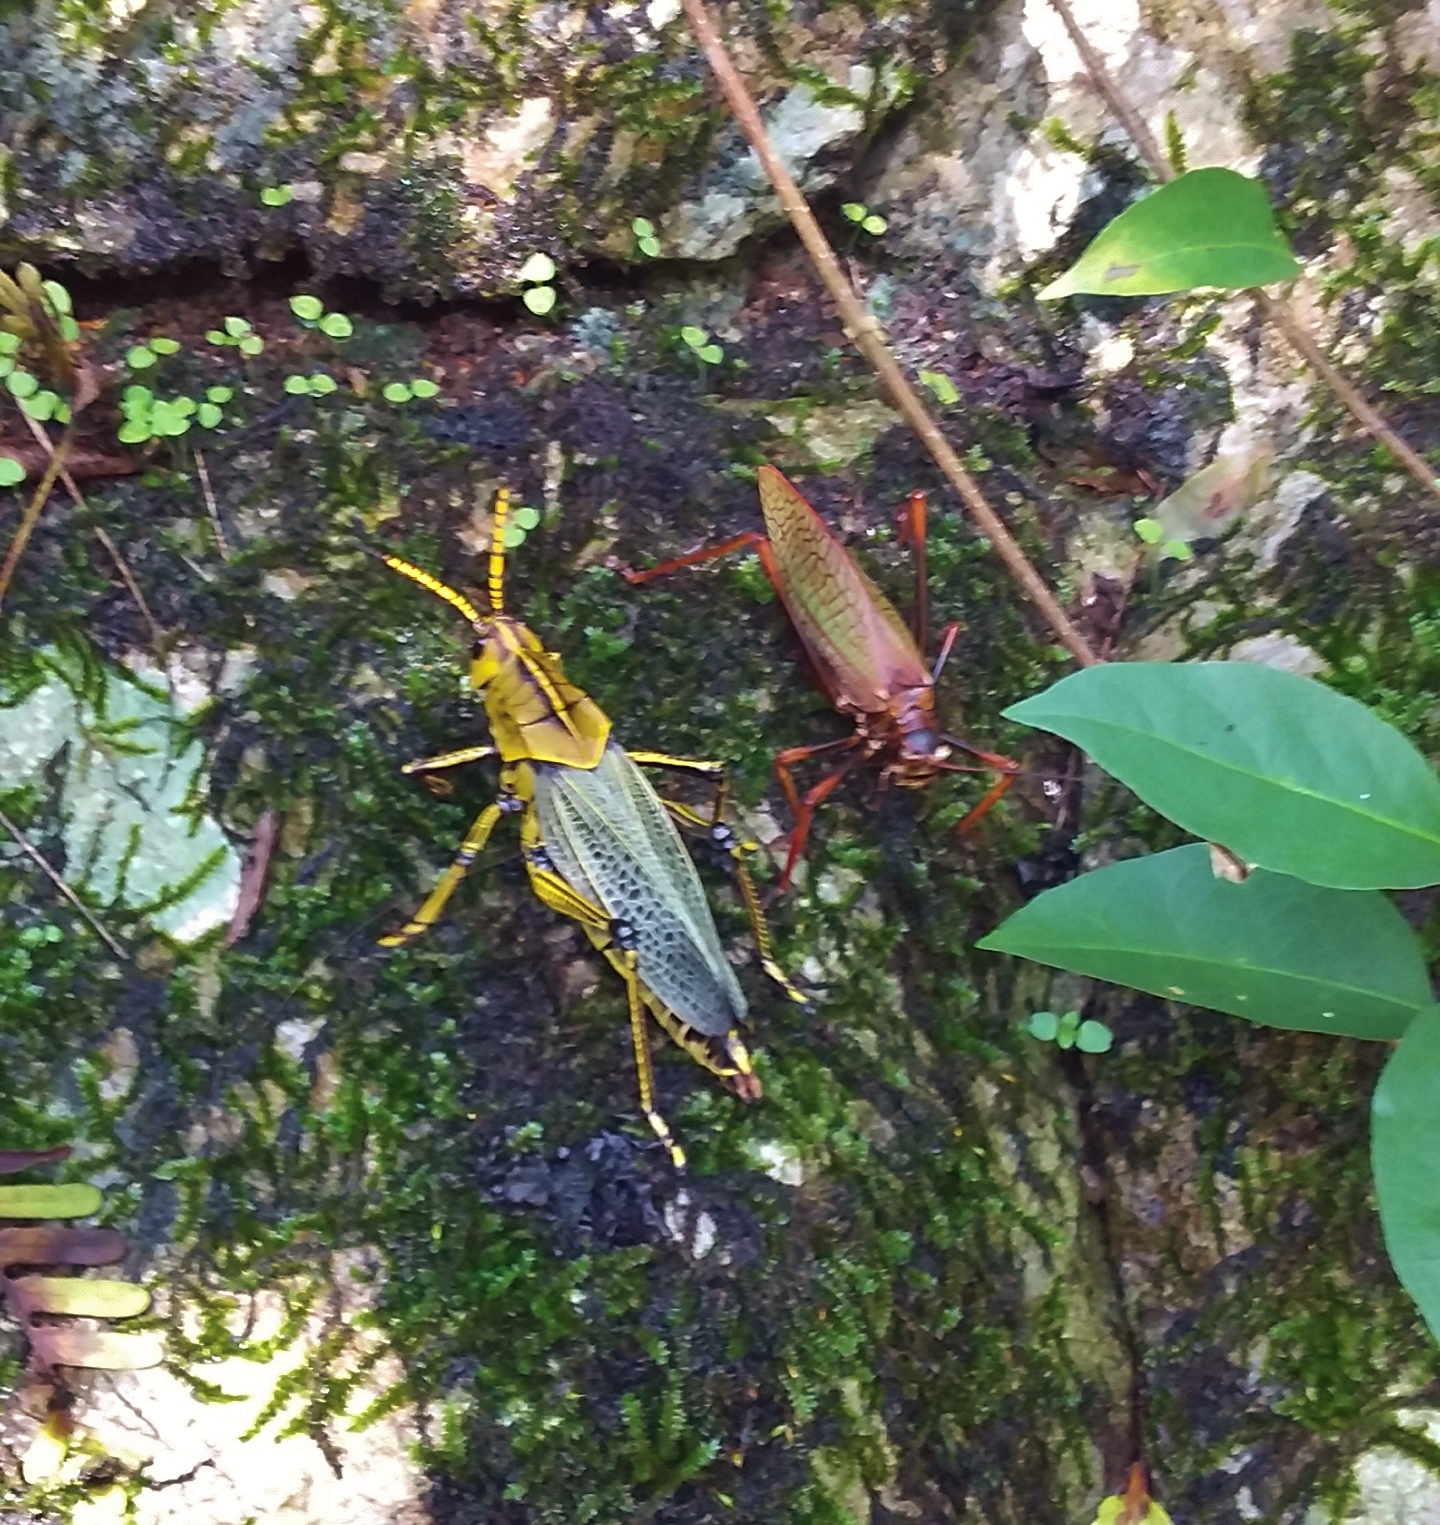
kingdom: Animalia
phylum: Arthropoda
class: Insecta
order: Orthoptera
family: Romaleidae
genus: Romalea
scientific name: Romalea
